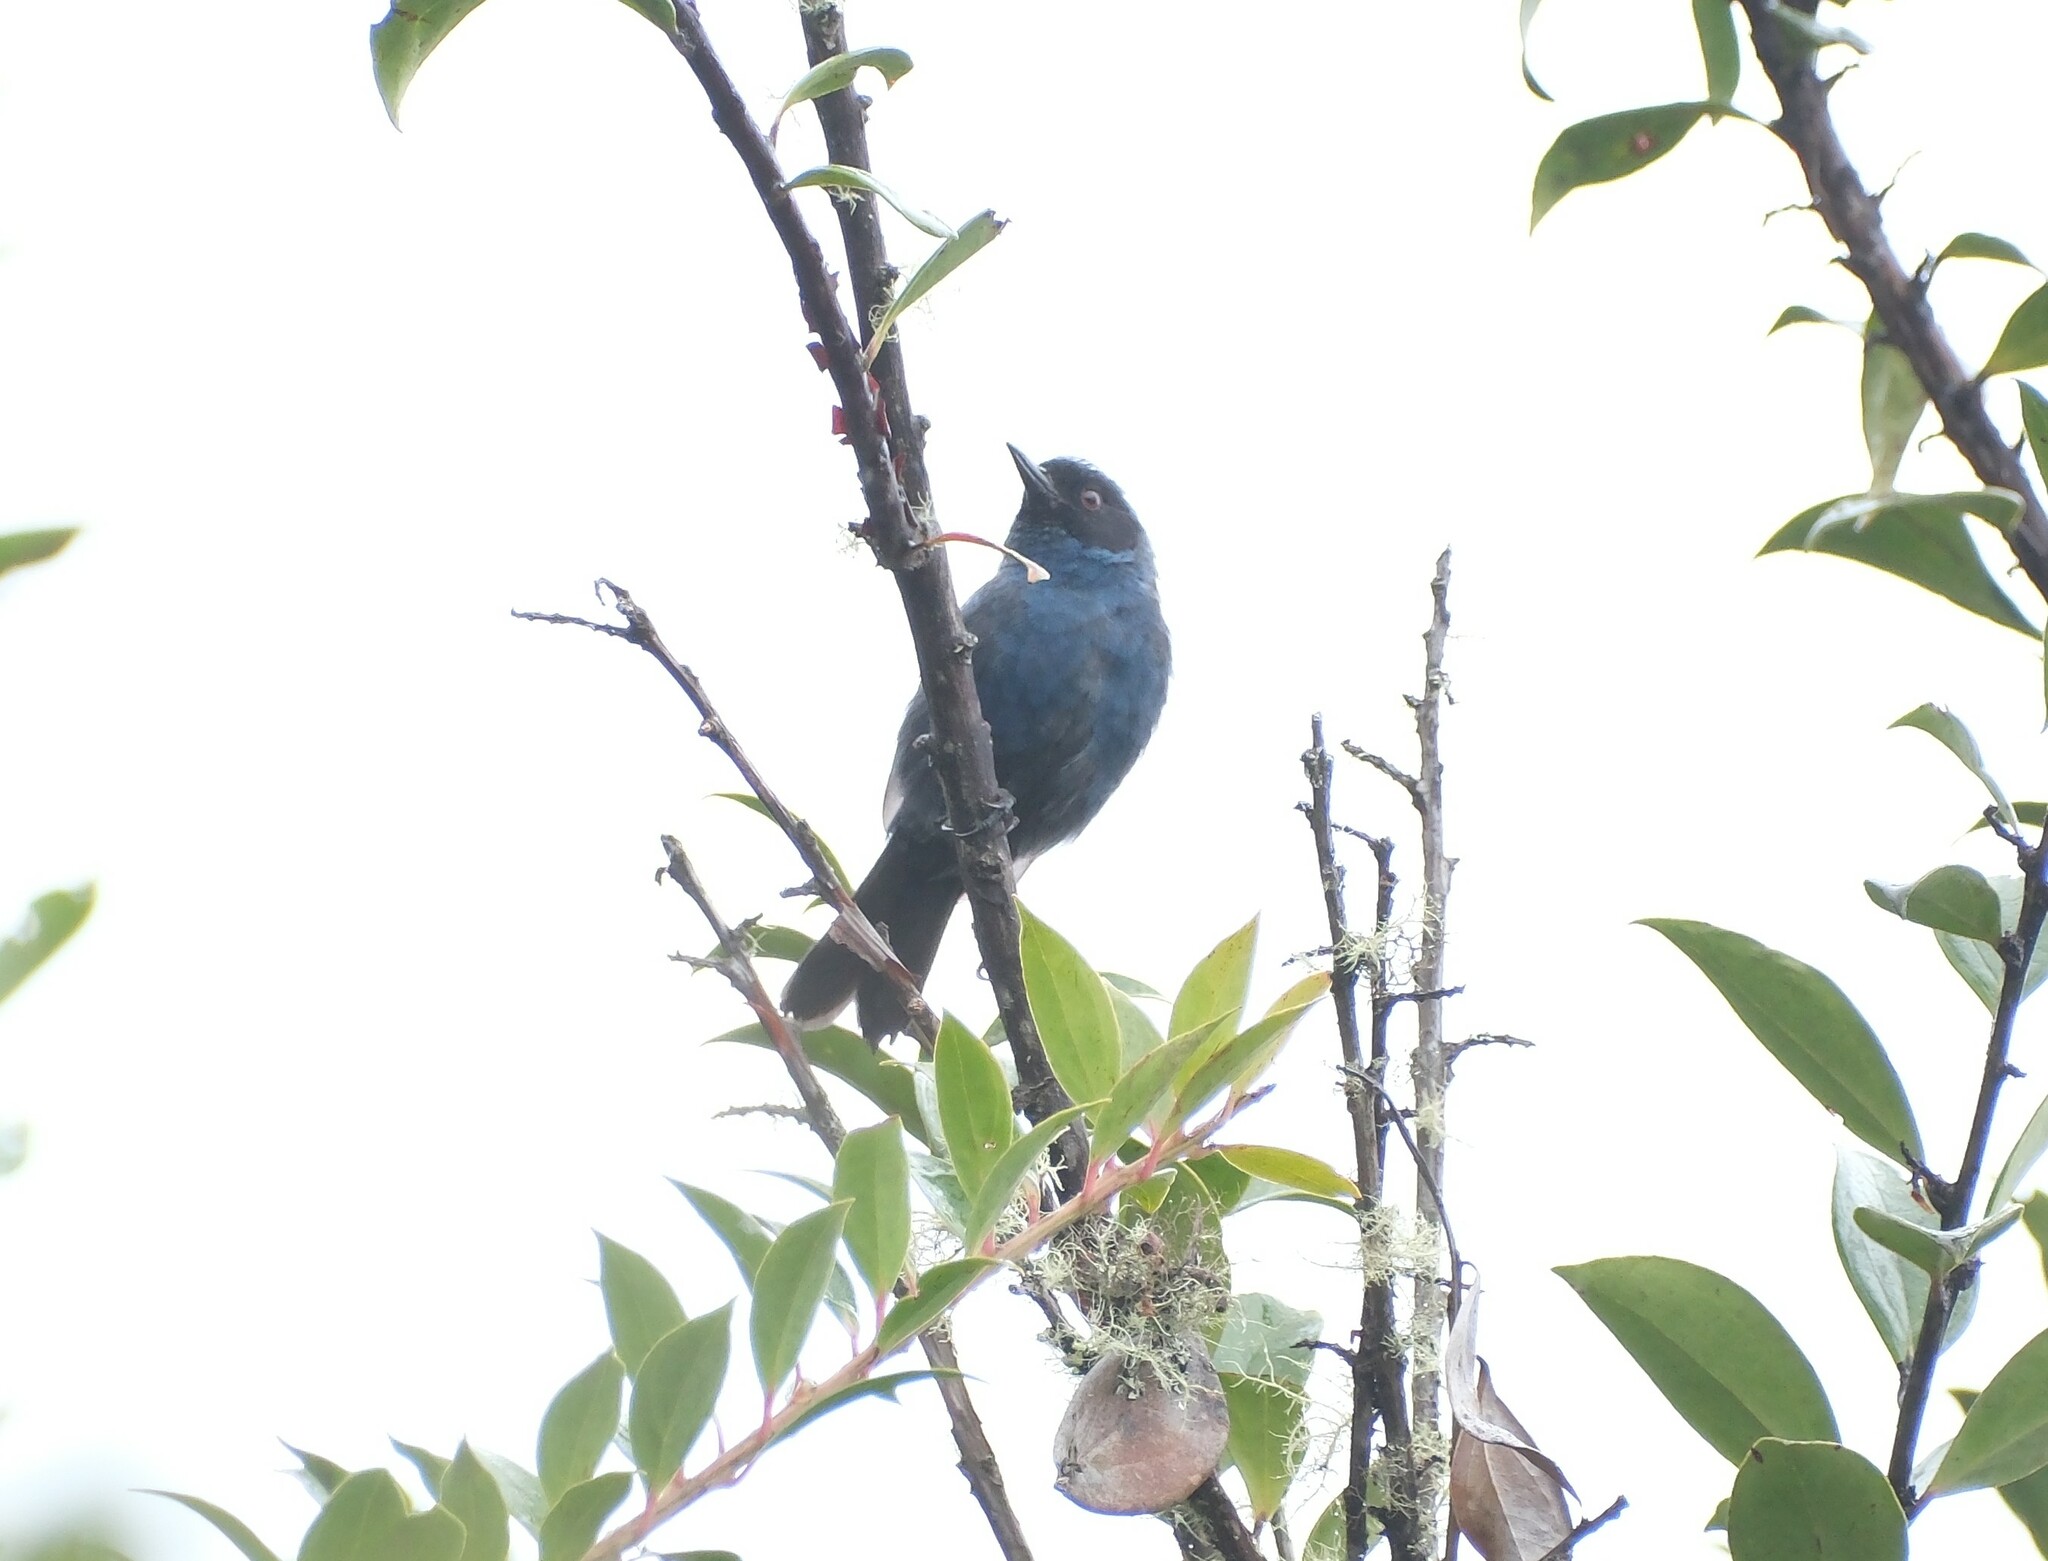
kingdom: Animalia
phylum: Chordata
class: Aves
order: Passeriformes
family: Thraupidae
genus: Diglossa
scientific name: Diglossa cyanea
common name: Masked flowerpiercer
